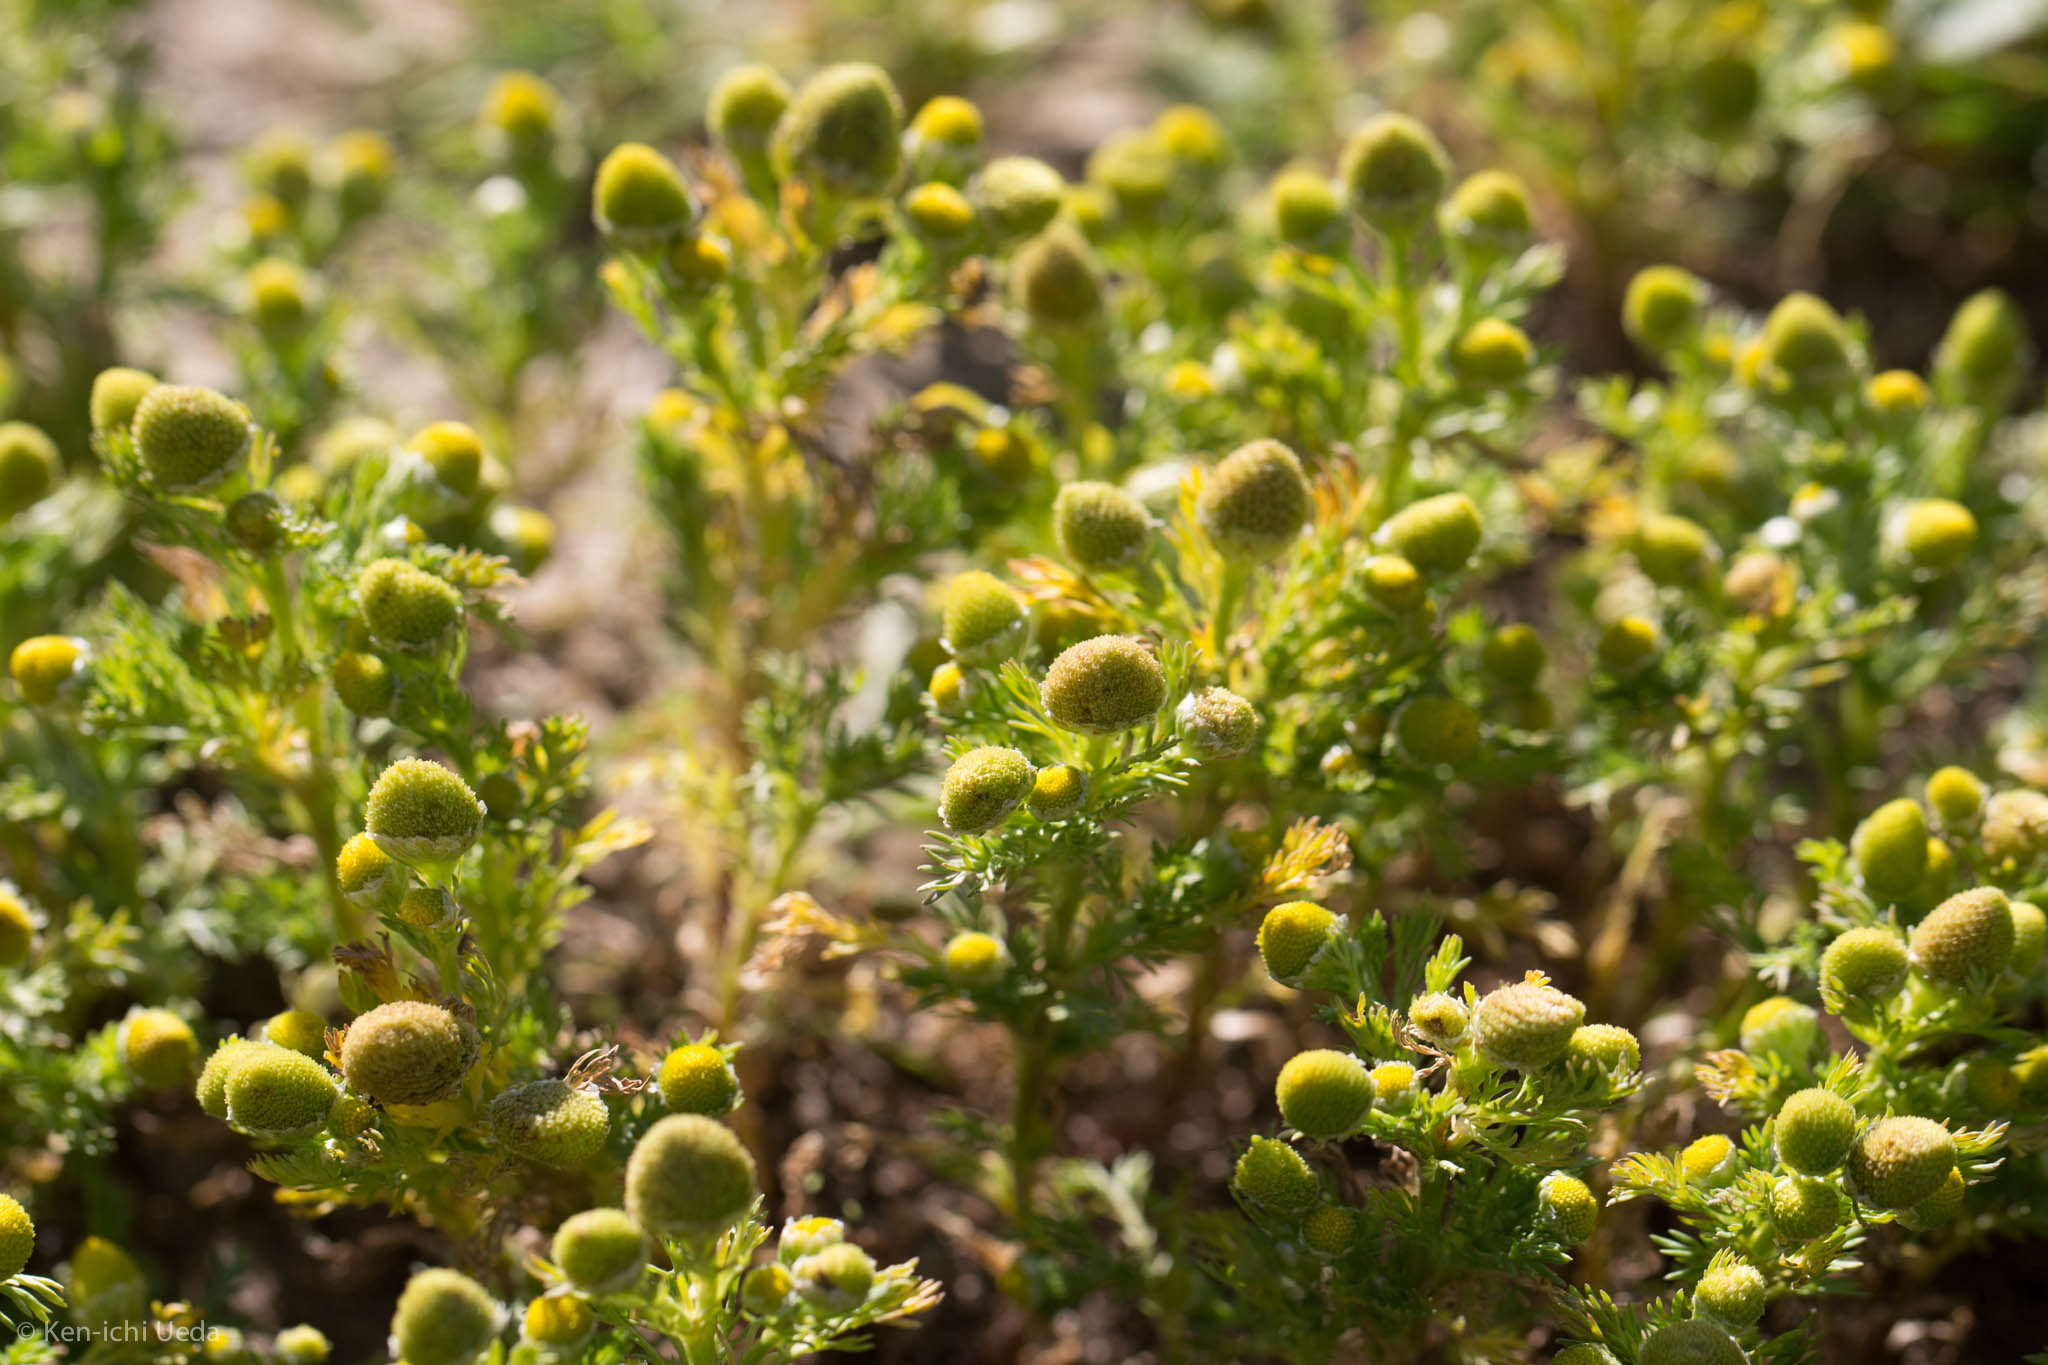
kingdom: Plantae
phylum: Tracheophyta
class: Magnoliopsida
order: Asterales
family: Asteraceae
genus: Matricaria
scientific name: Matricaria discoidea
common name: Disc mayweed
